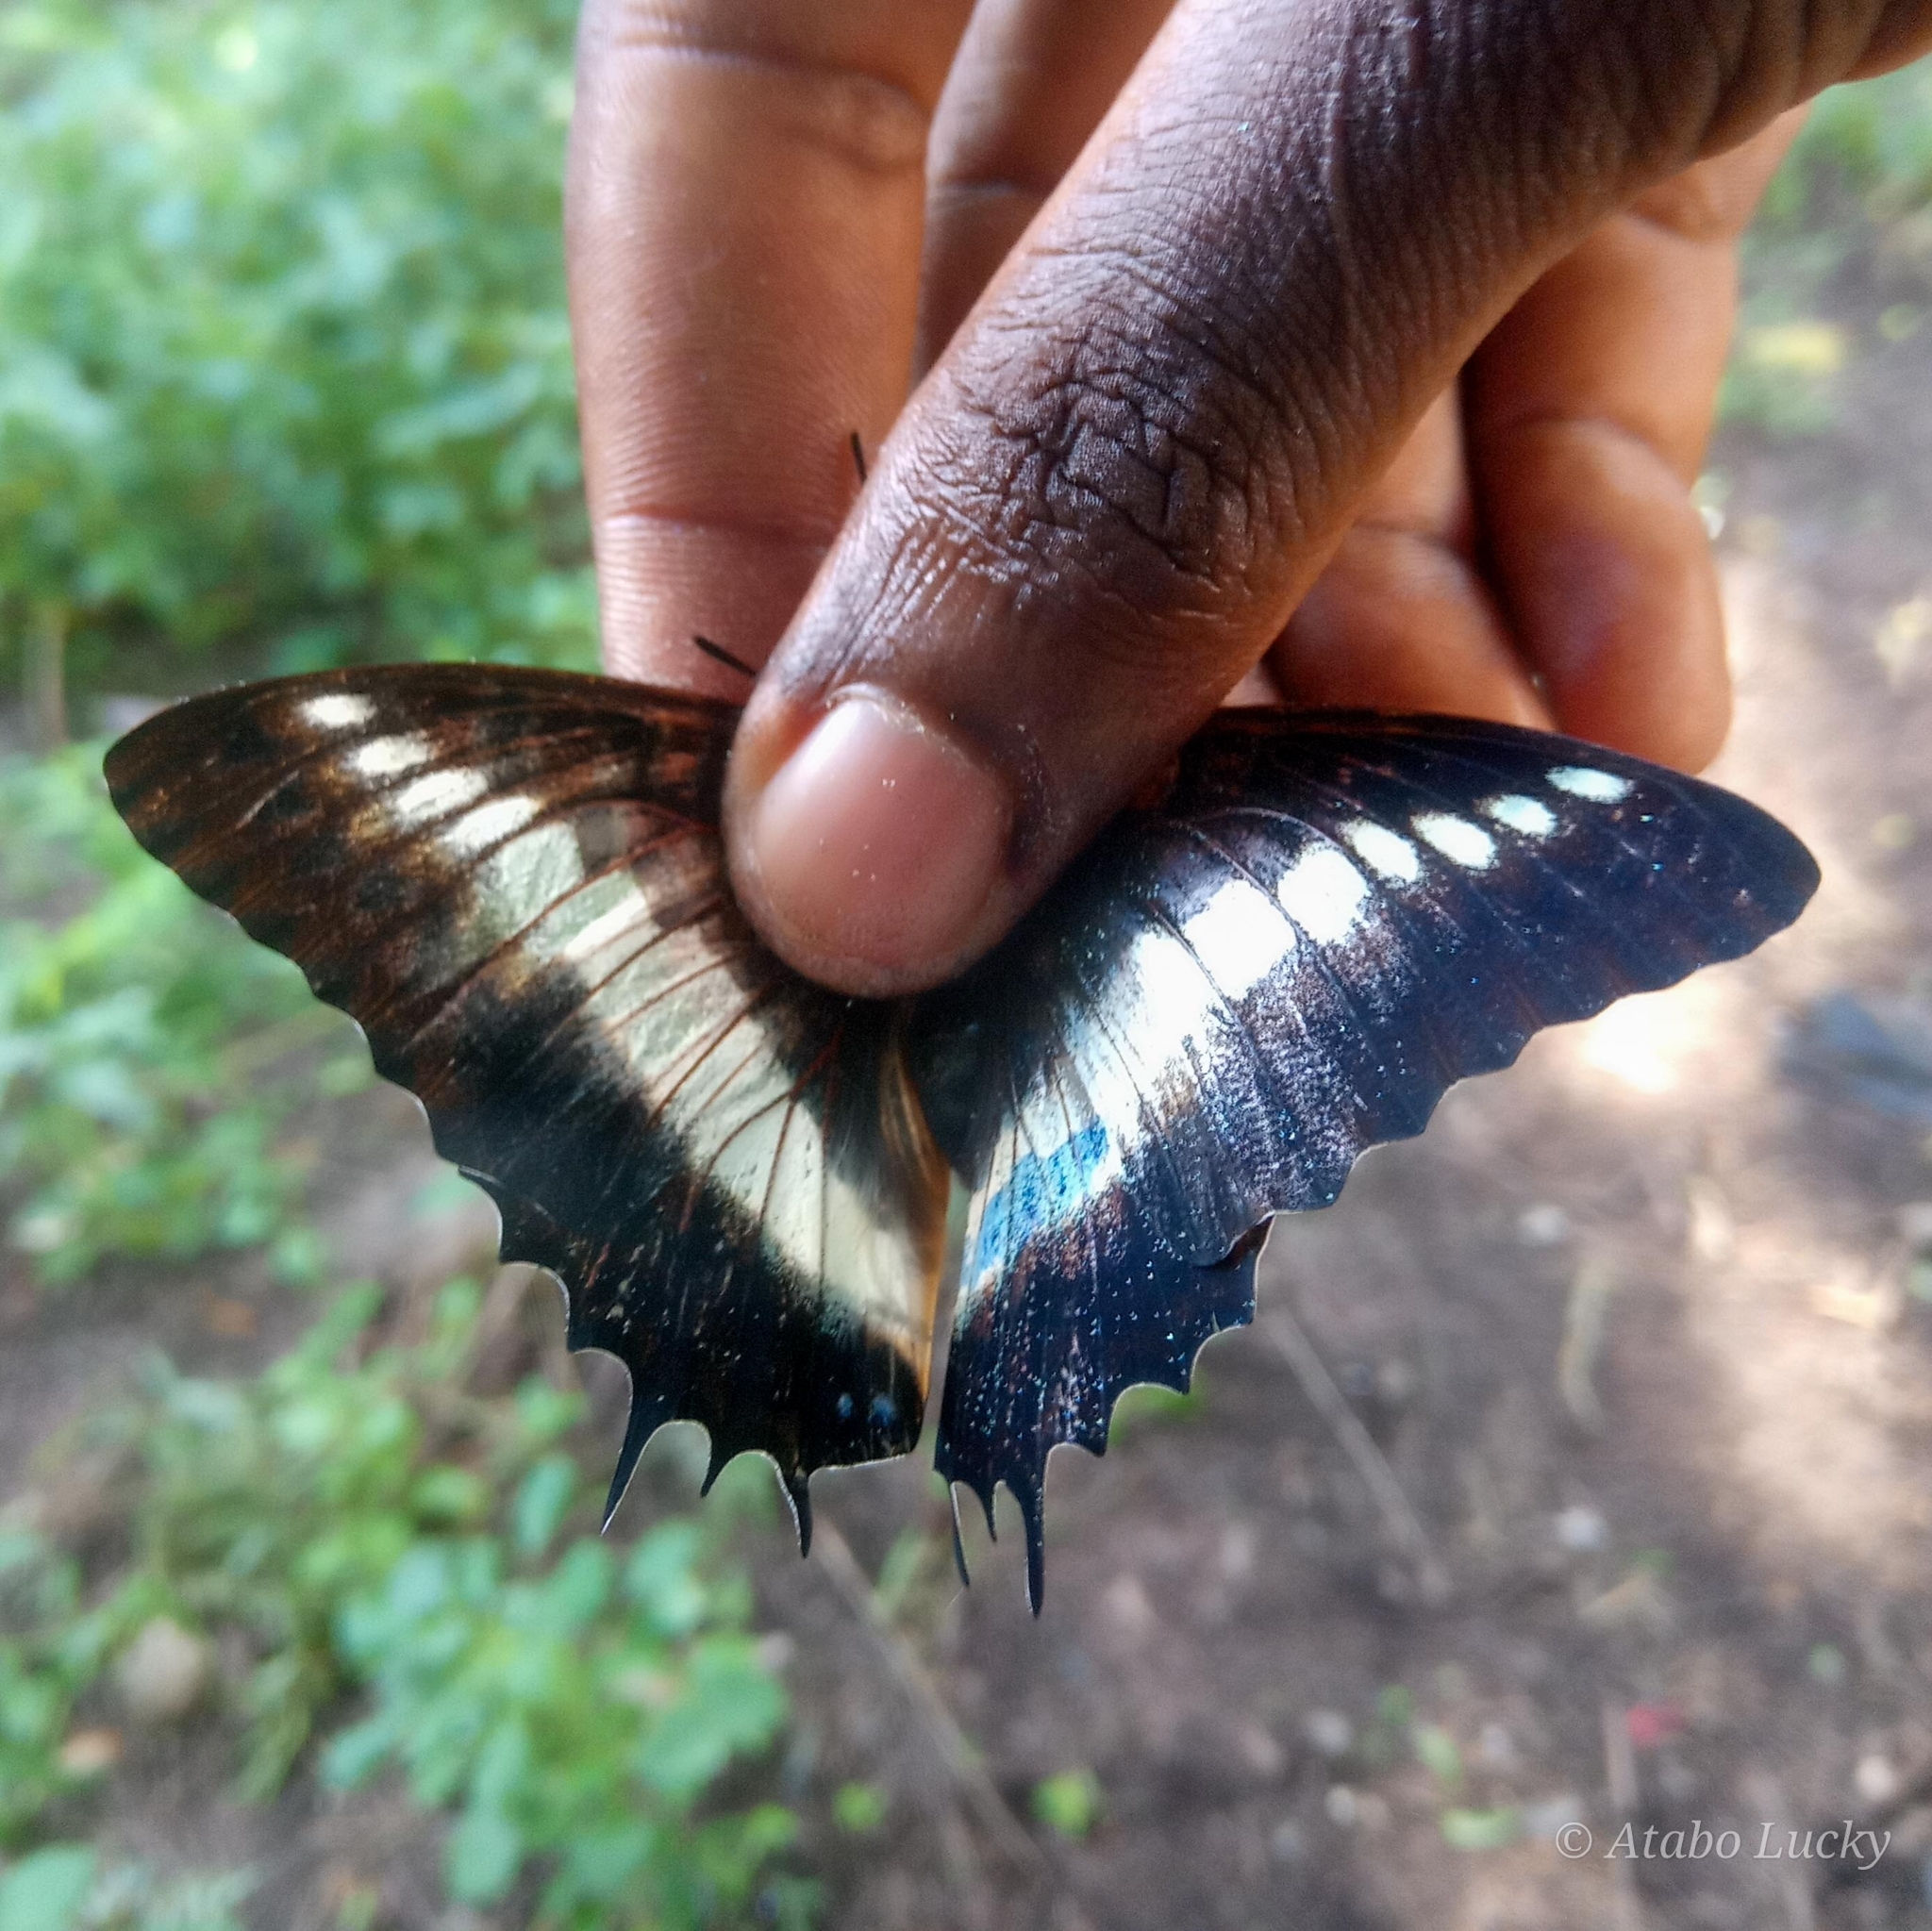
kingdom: Animalia
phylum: Arthropoda
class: Insecta
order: Lepidoptera
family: Nymphalidae
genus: Charaxes
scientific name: Charaxes brutus
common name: White-barred charaxes
